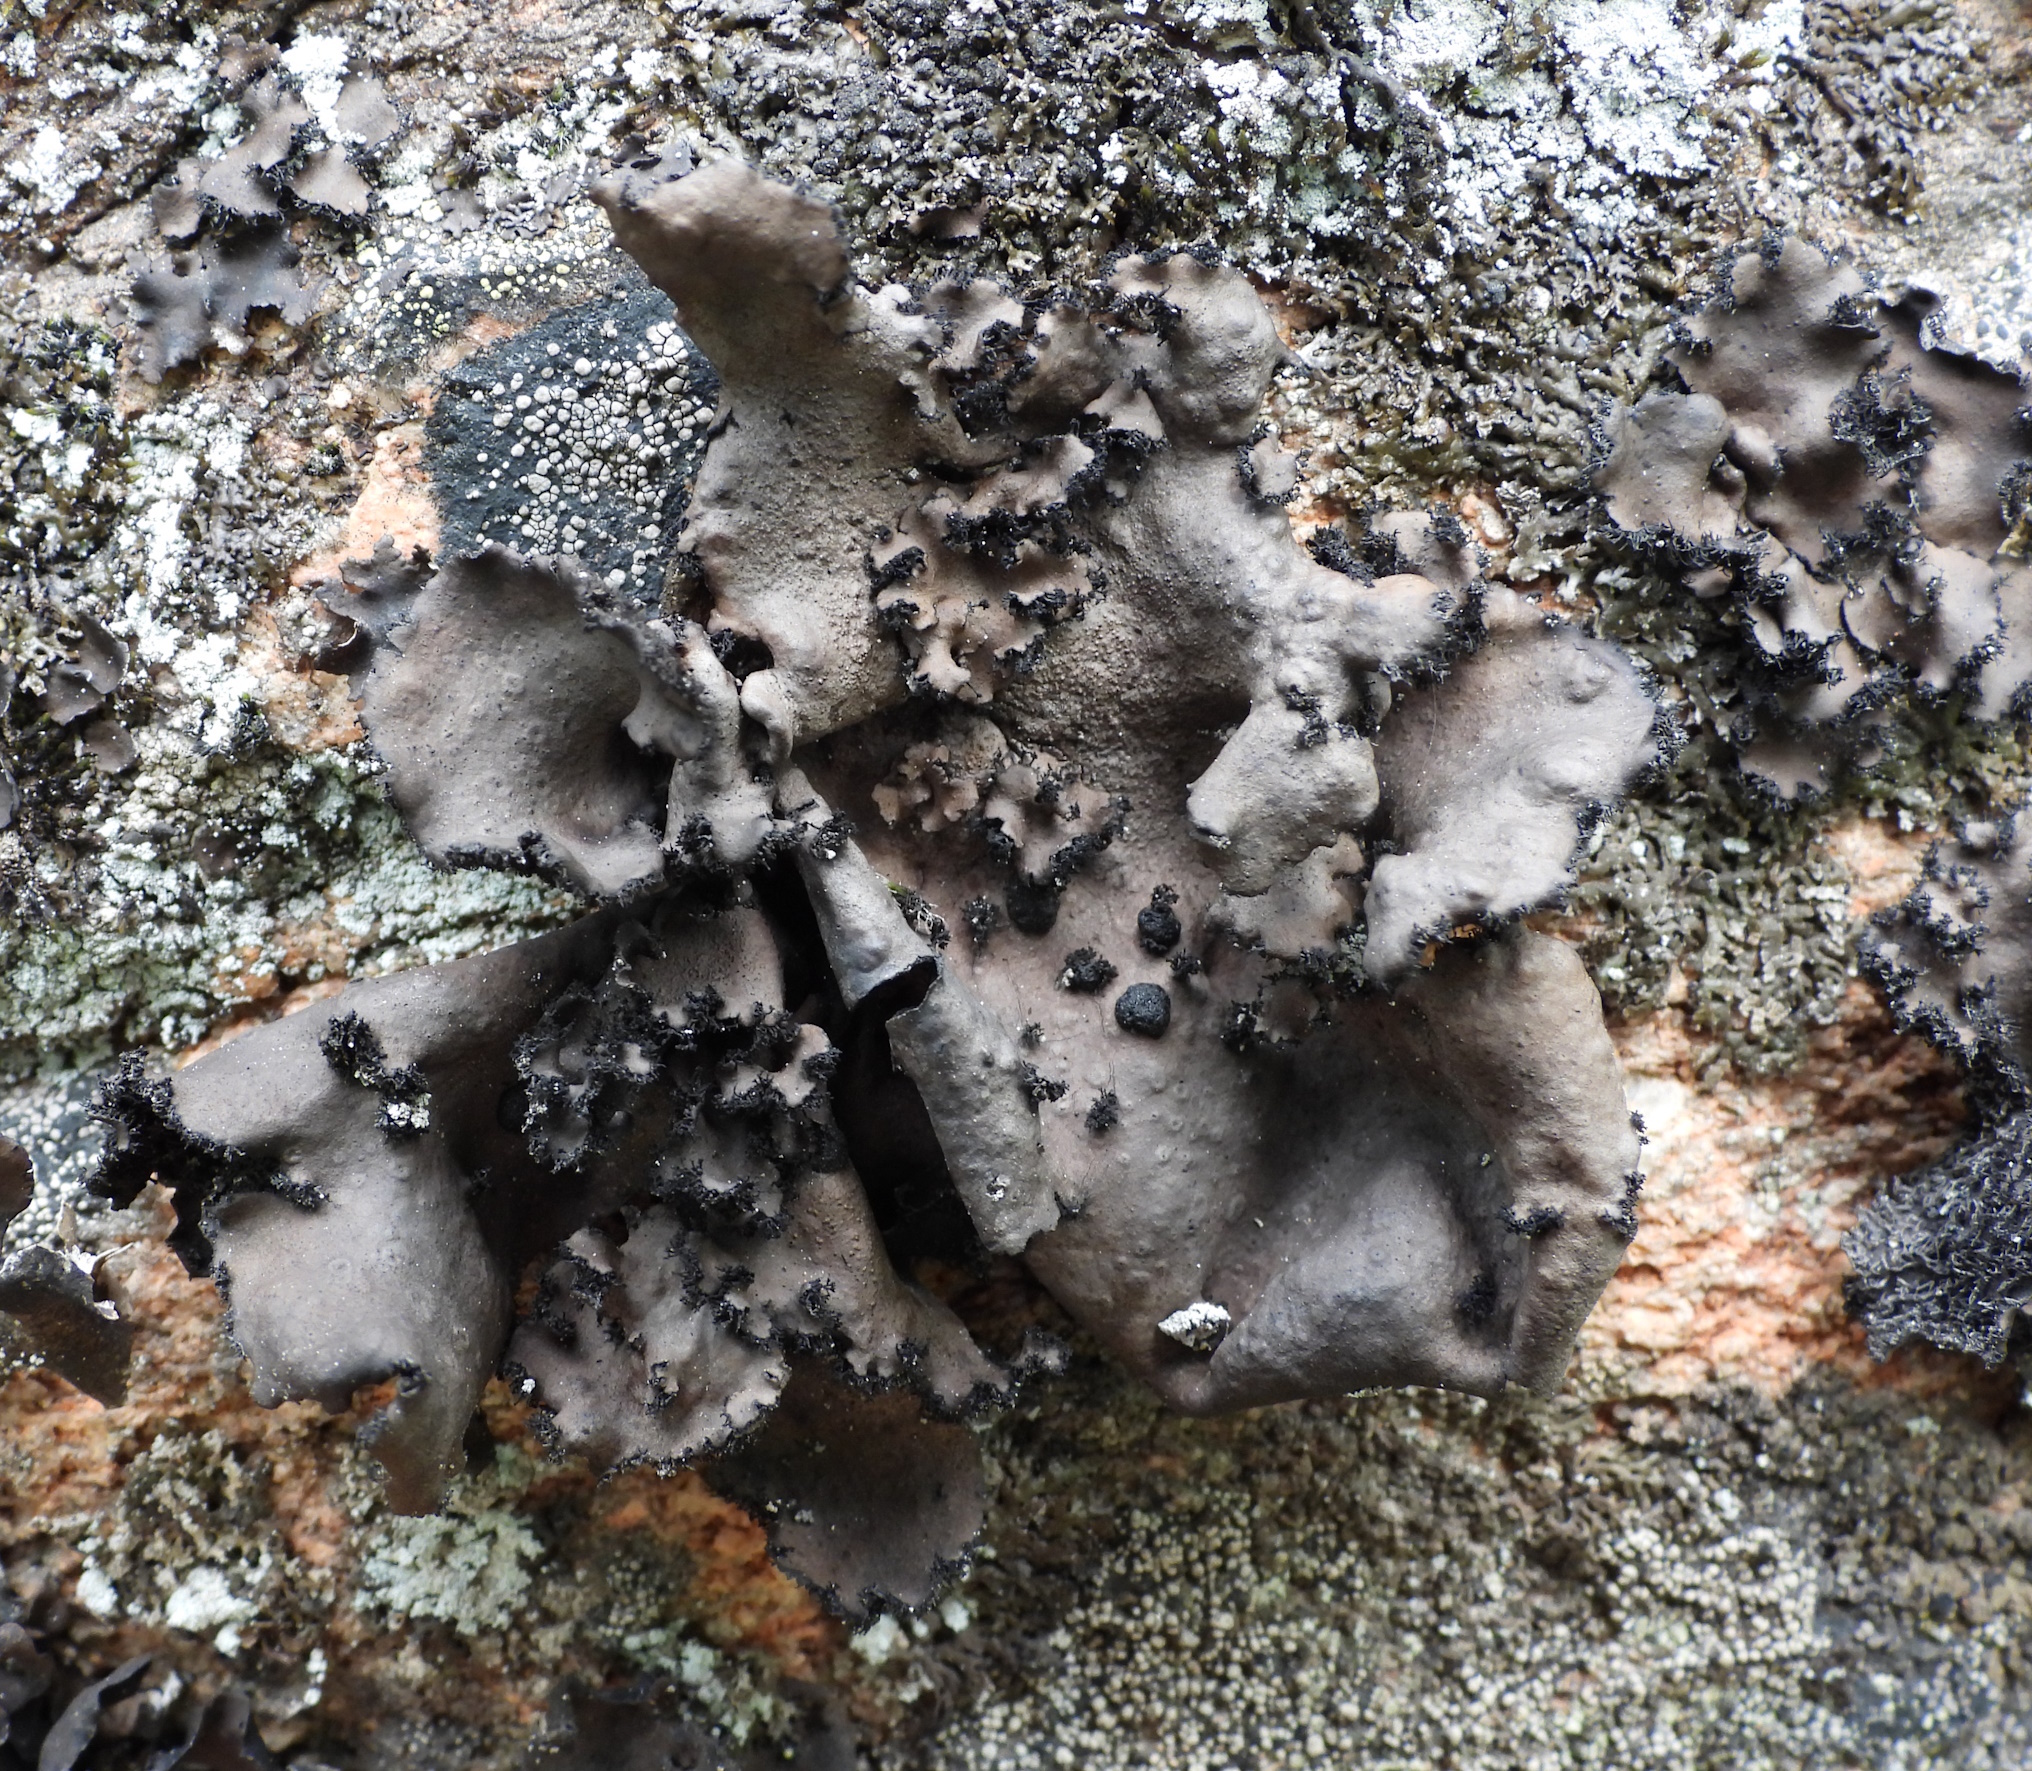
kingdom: Fungi
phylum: Ascomycota
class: Lecanoromycetes
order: Umbilicariales
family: Umbilicariaceae
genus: Umbilicaria
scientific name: Umbilicaria polyrrhiza
